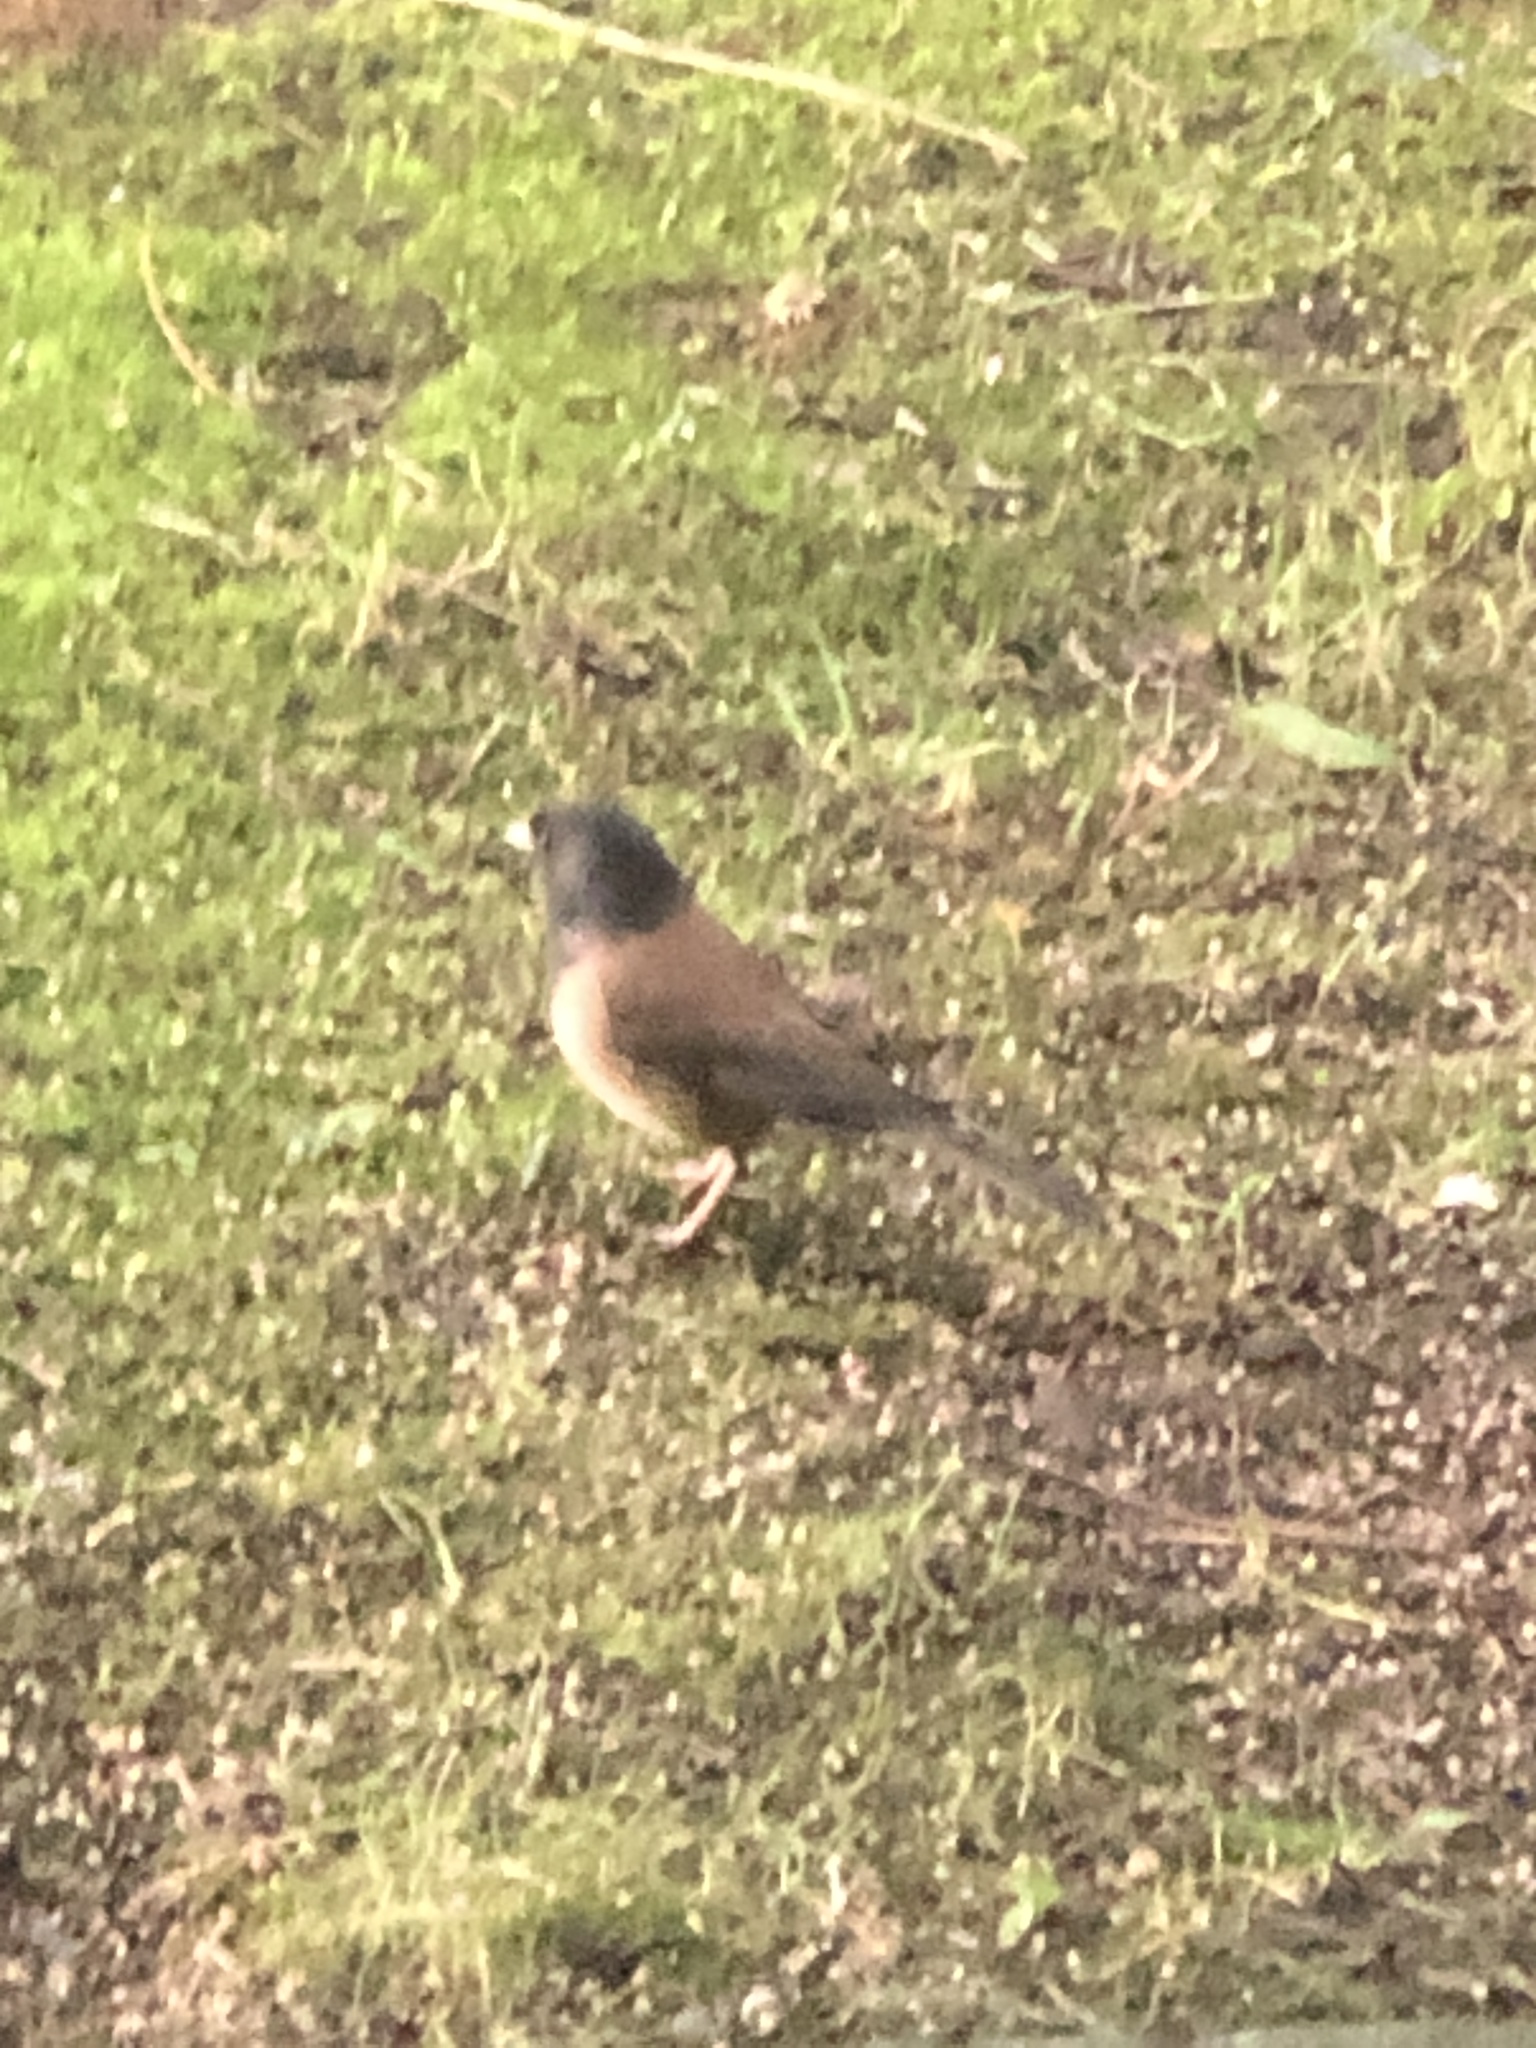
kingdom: Animalia
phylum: Chordata
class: Aves
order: Passeriformes
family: Passerellidae
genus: Junco
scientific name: Junco hyemalis
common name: Dark-eyed junco
